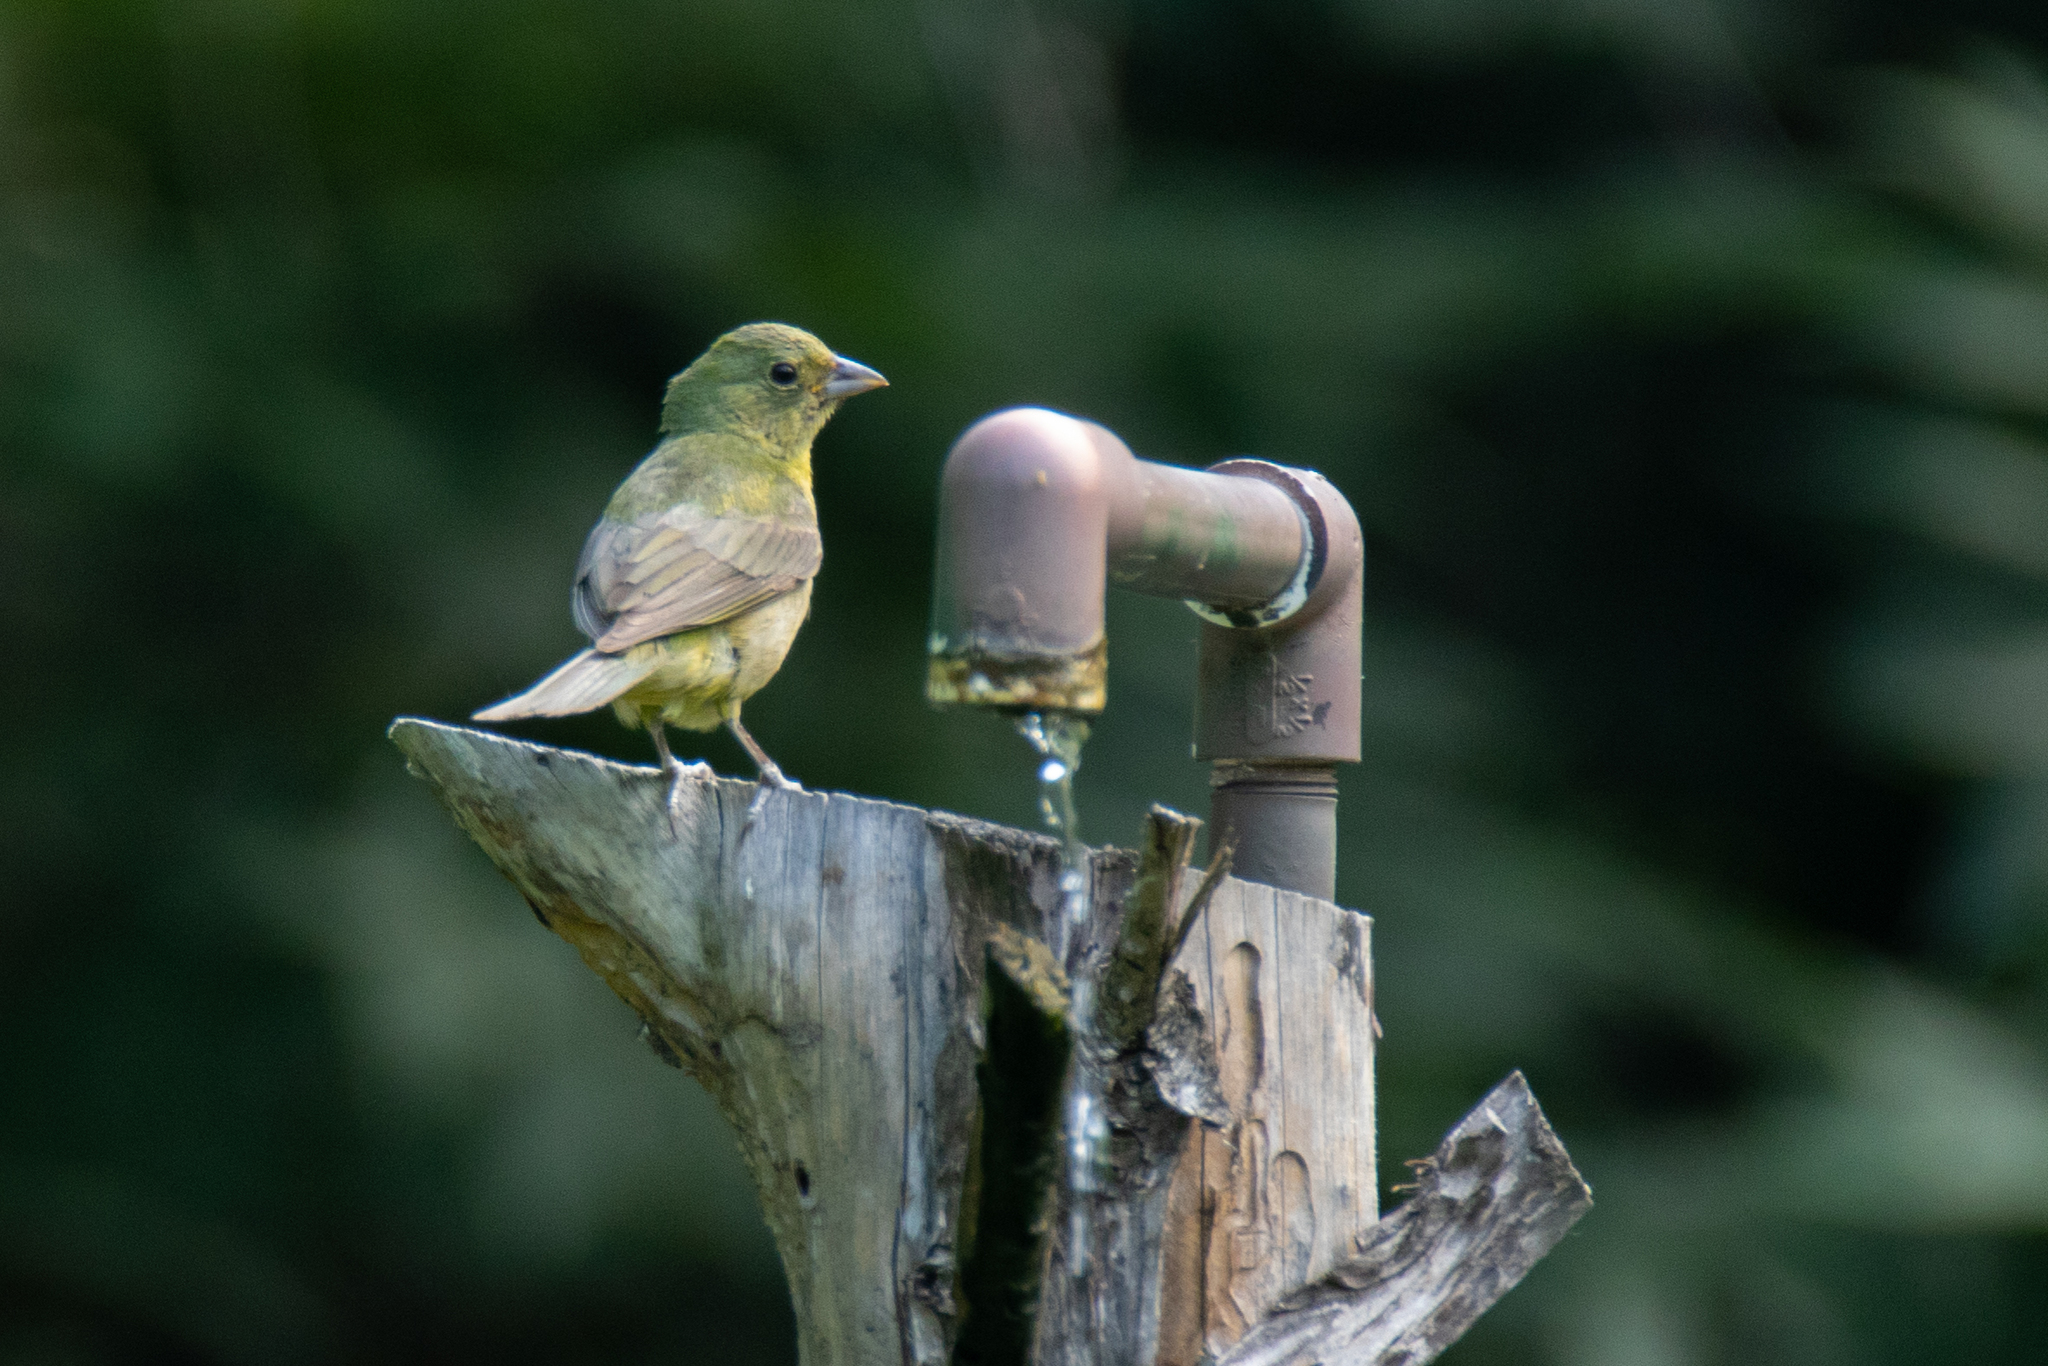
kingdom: Animalia
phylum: Chordata
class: Aves
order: Passeriformes
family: Cardinalidae
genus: Passerina
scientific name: Passerina ciris
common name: Painted bunting
